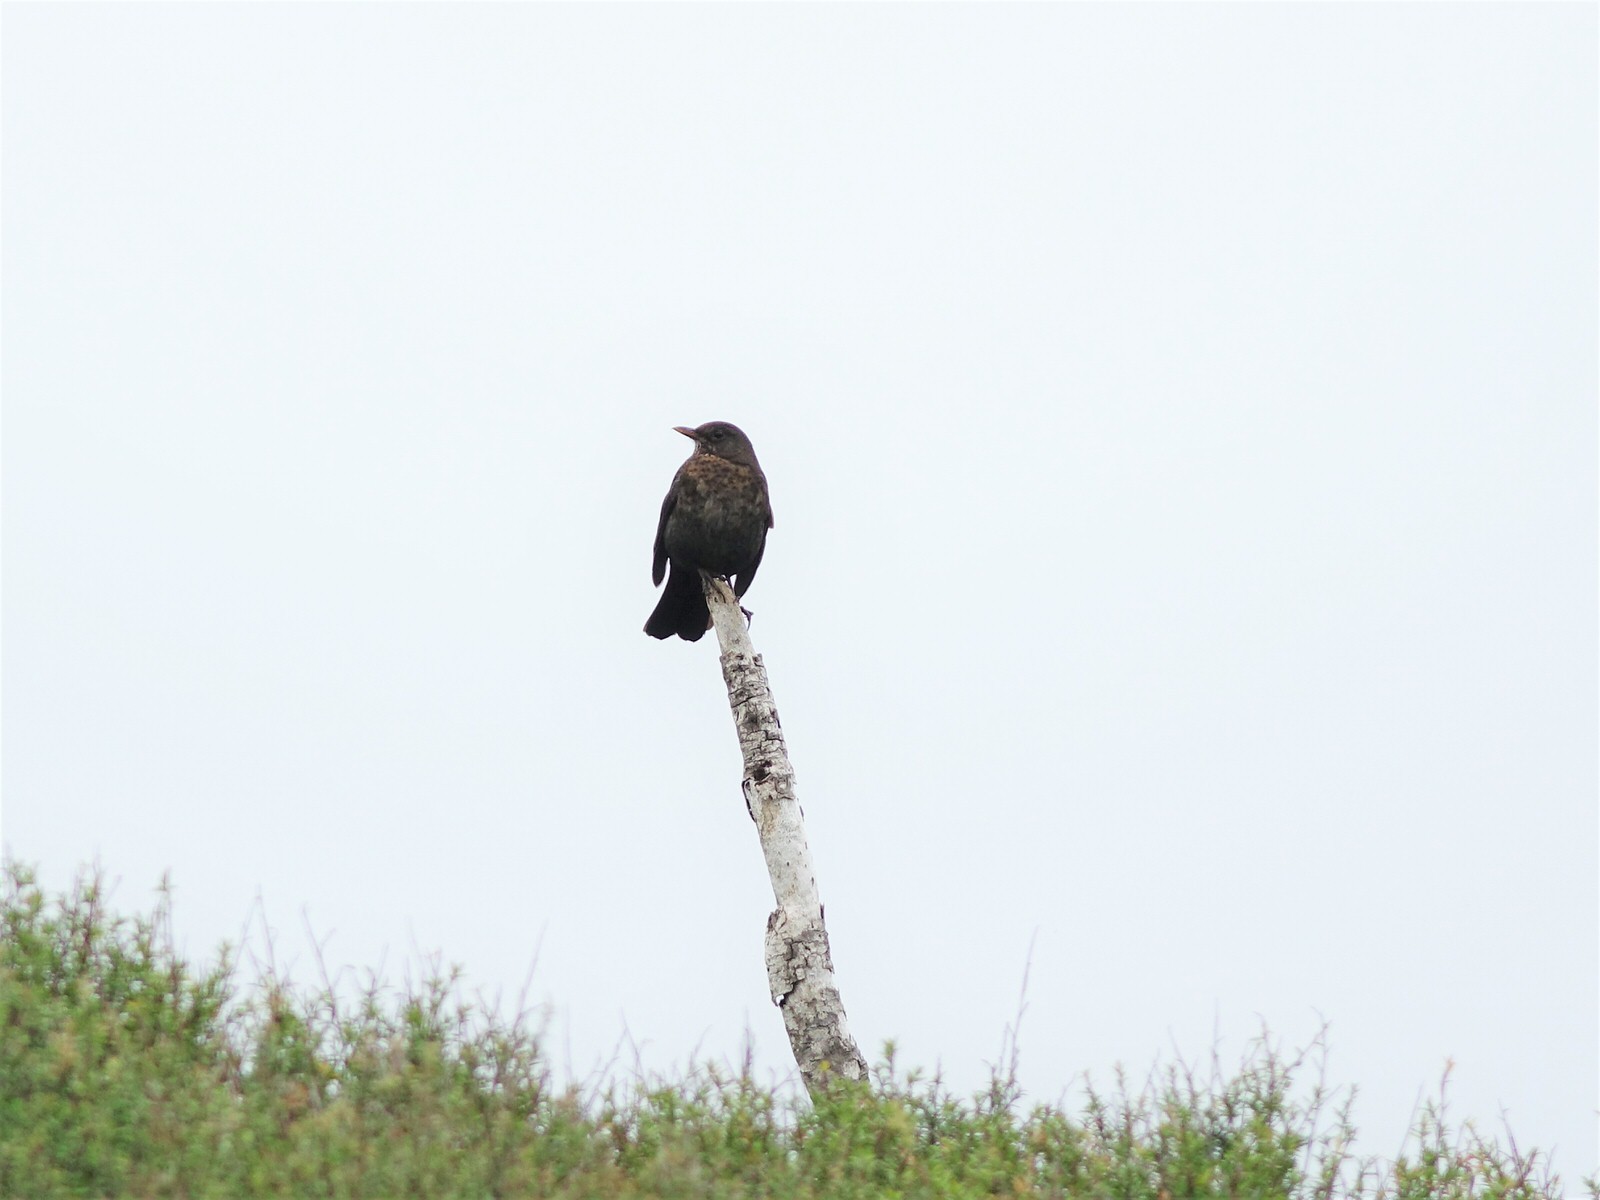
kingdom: Animalia
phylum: Chordata
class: Aves
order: Passeriformes
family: Turdidae
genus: Turdus
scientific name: Turdus merula
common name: Common blackbird
